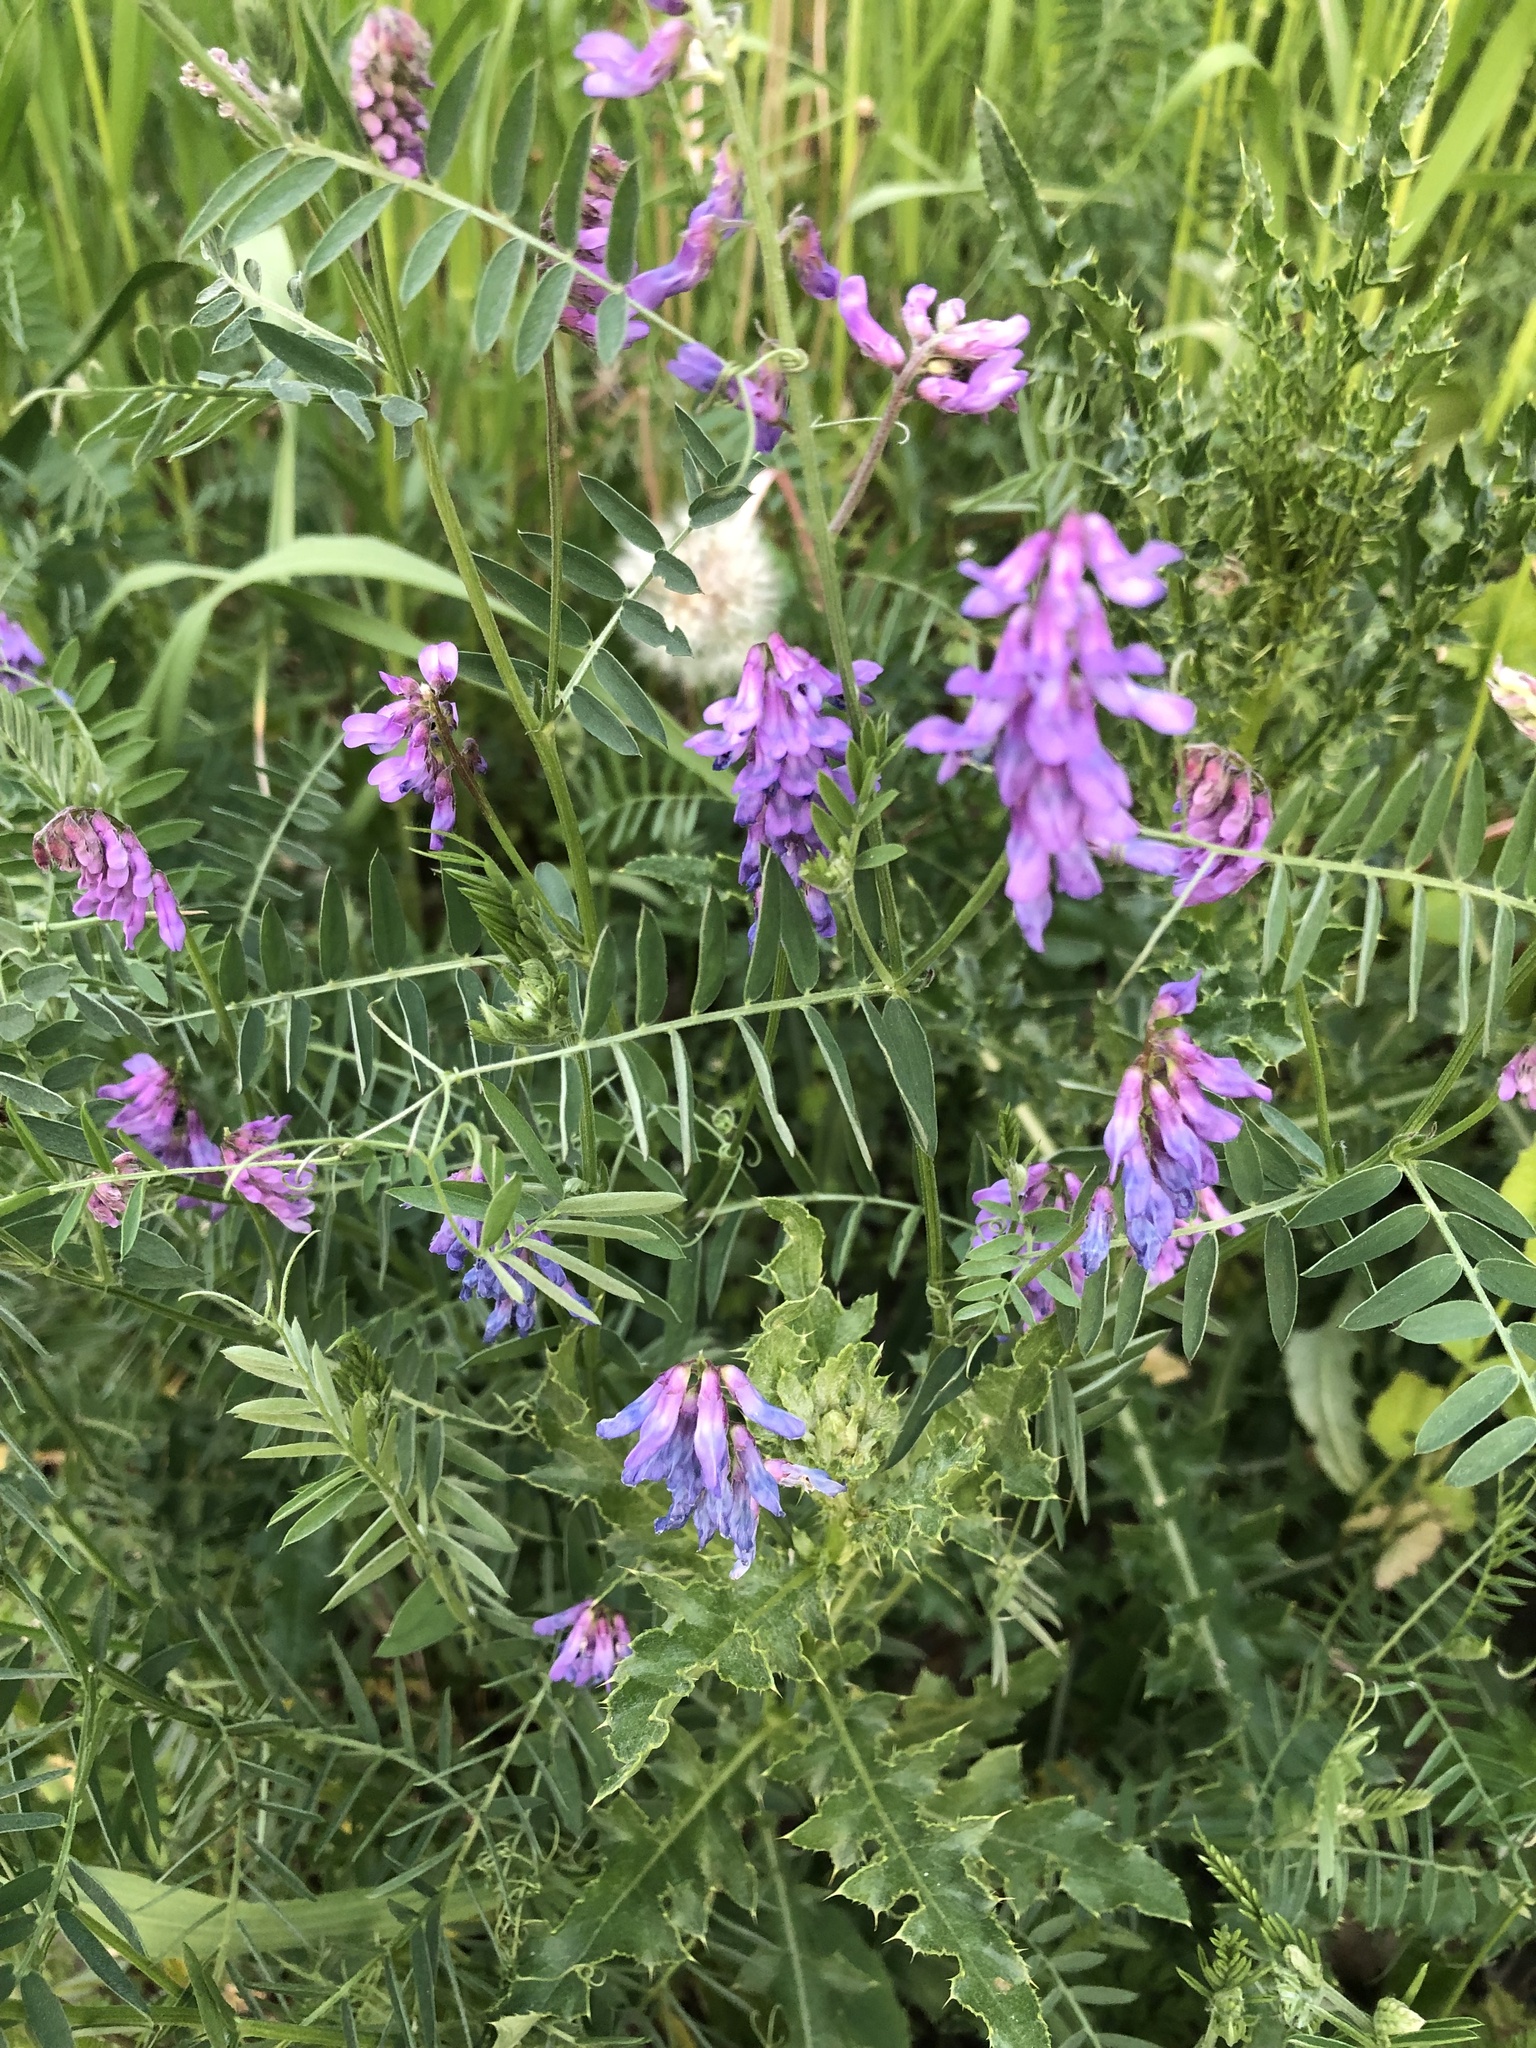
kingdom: Plantae
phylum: Tracheophyta
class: Magnoliopsida
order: Fabales
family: Fabaceae
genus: Vicia
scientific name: Vicia cracca
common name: Bird vetch
